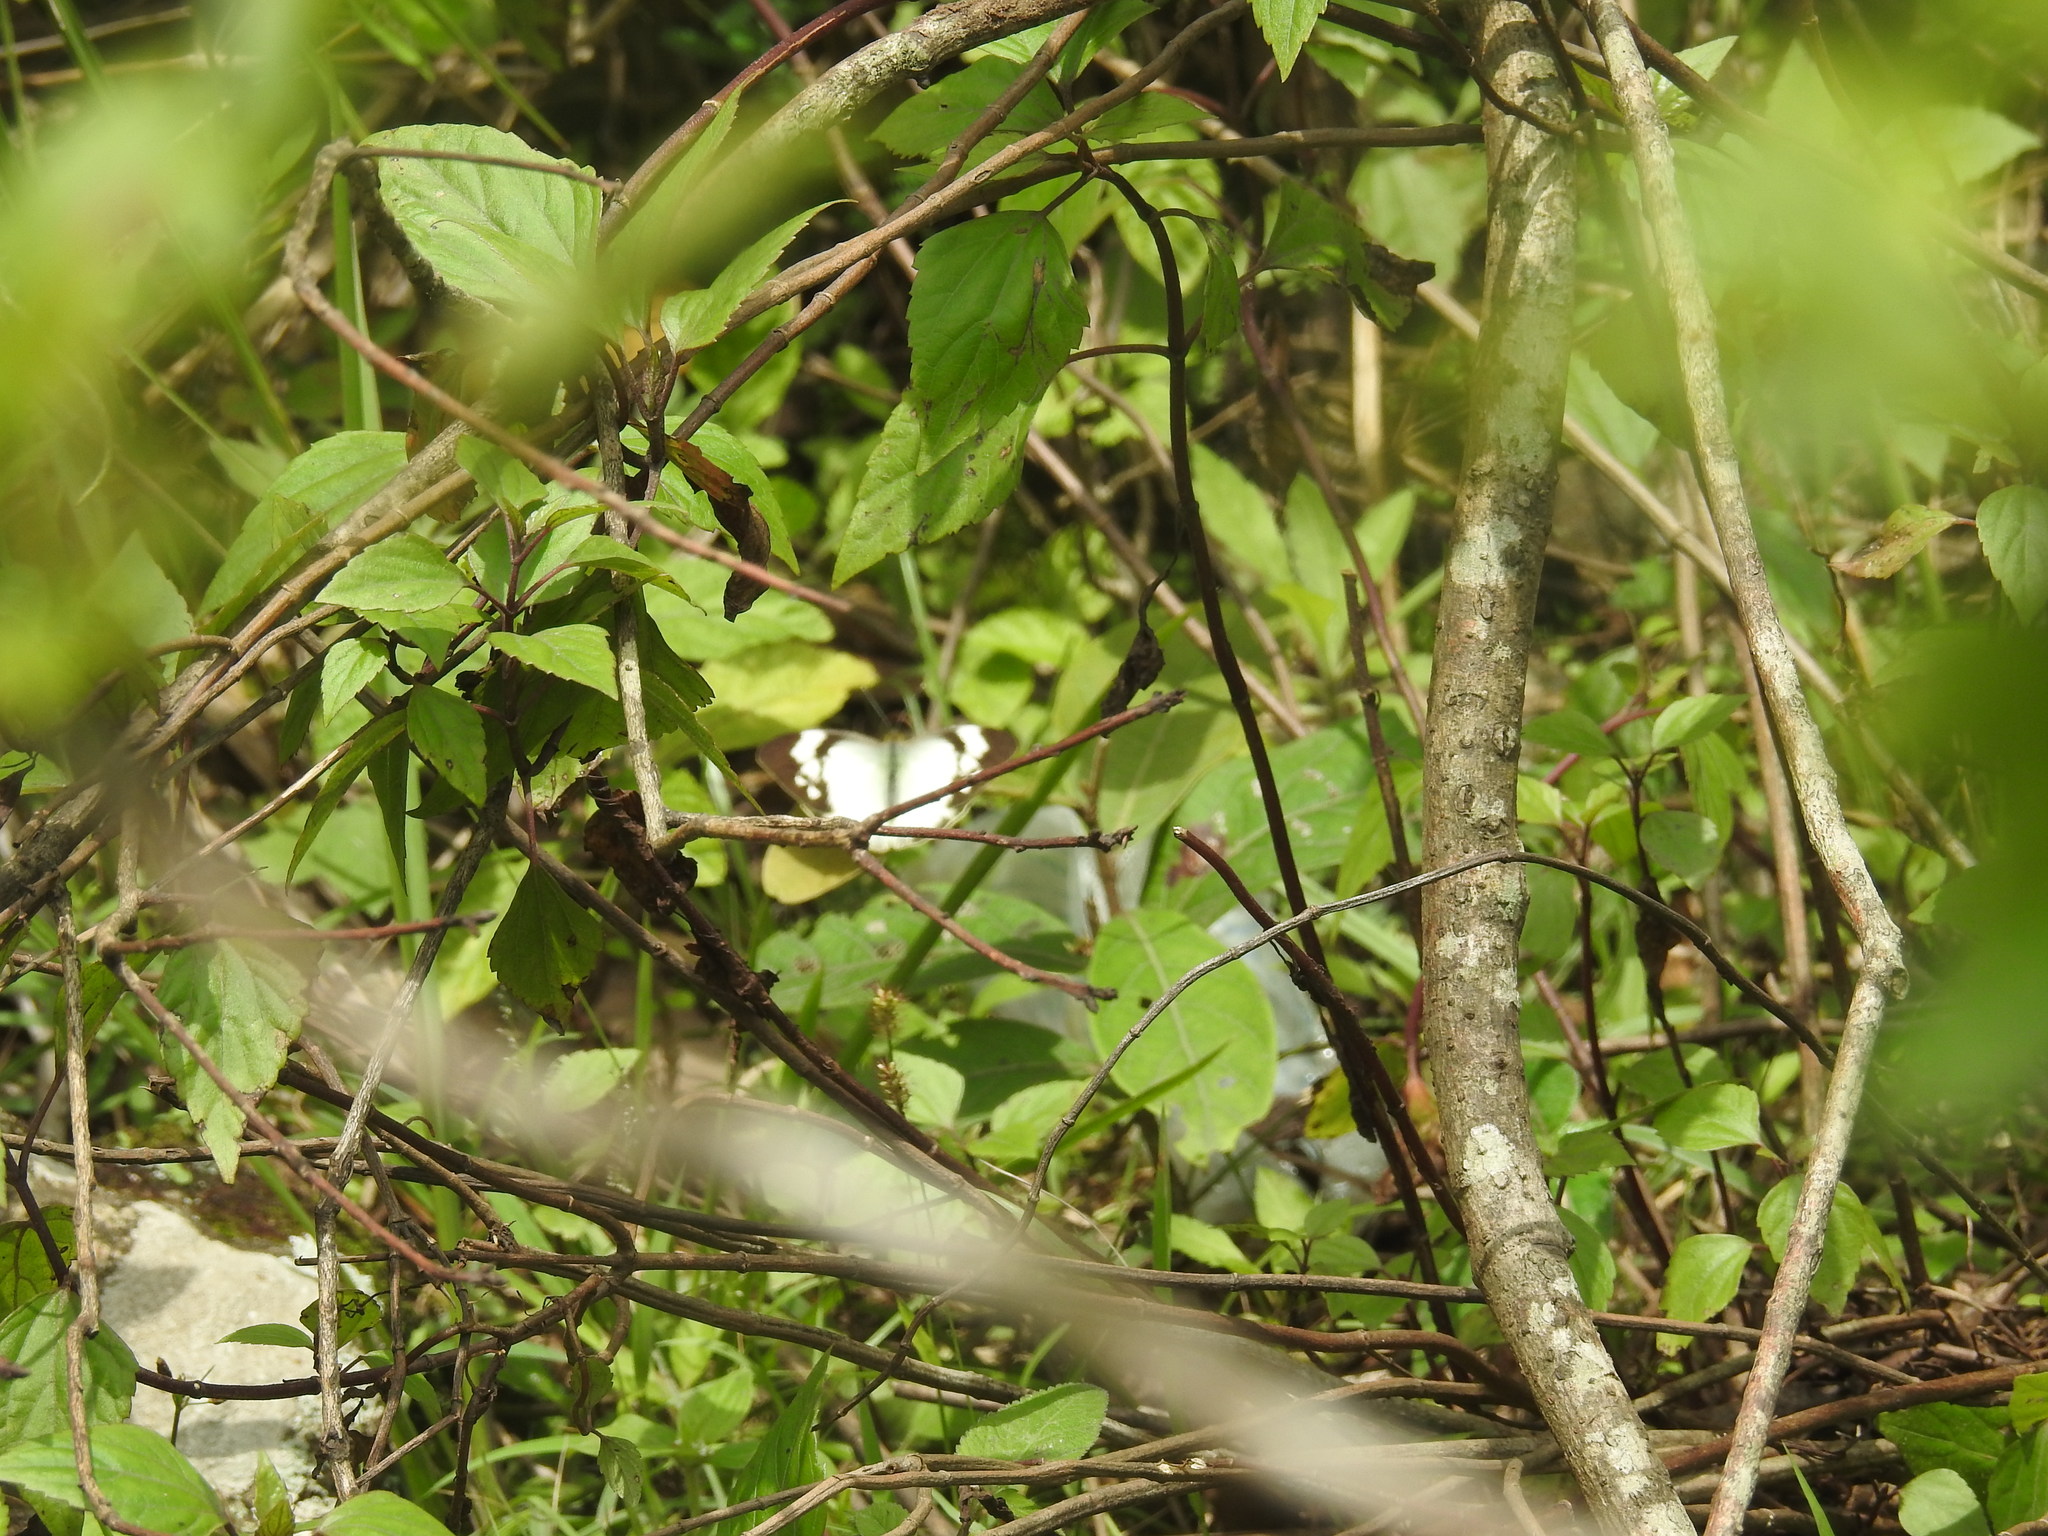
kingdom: Animalia
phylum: Arthropoda
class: Insecta
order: Lepidoptera
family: Pieridae
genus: Ixias
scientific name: Ixias pyrene
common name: Yellow orange tip
